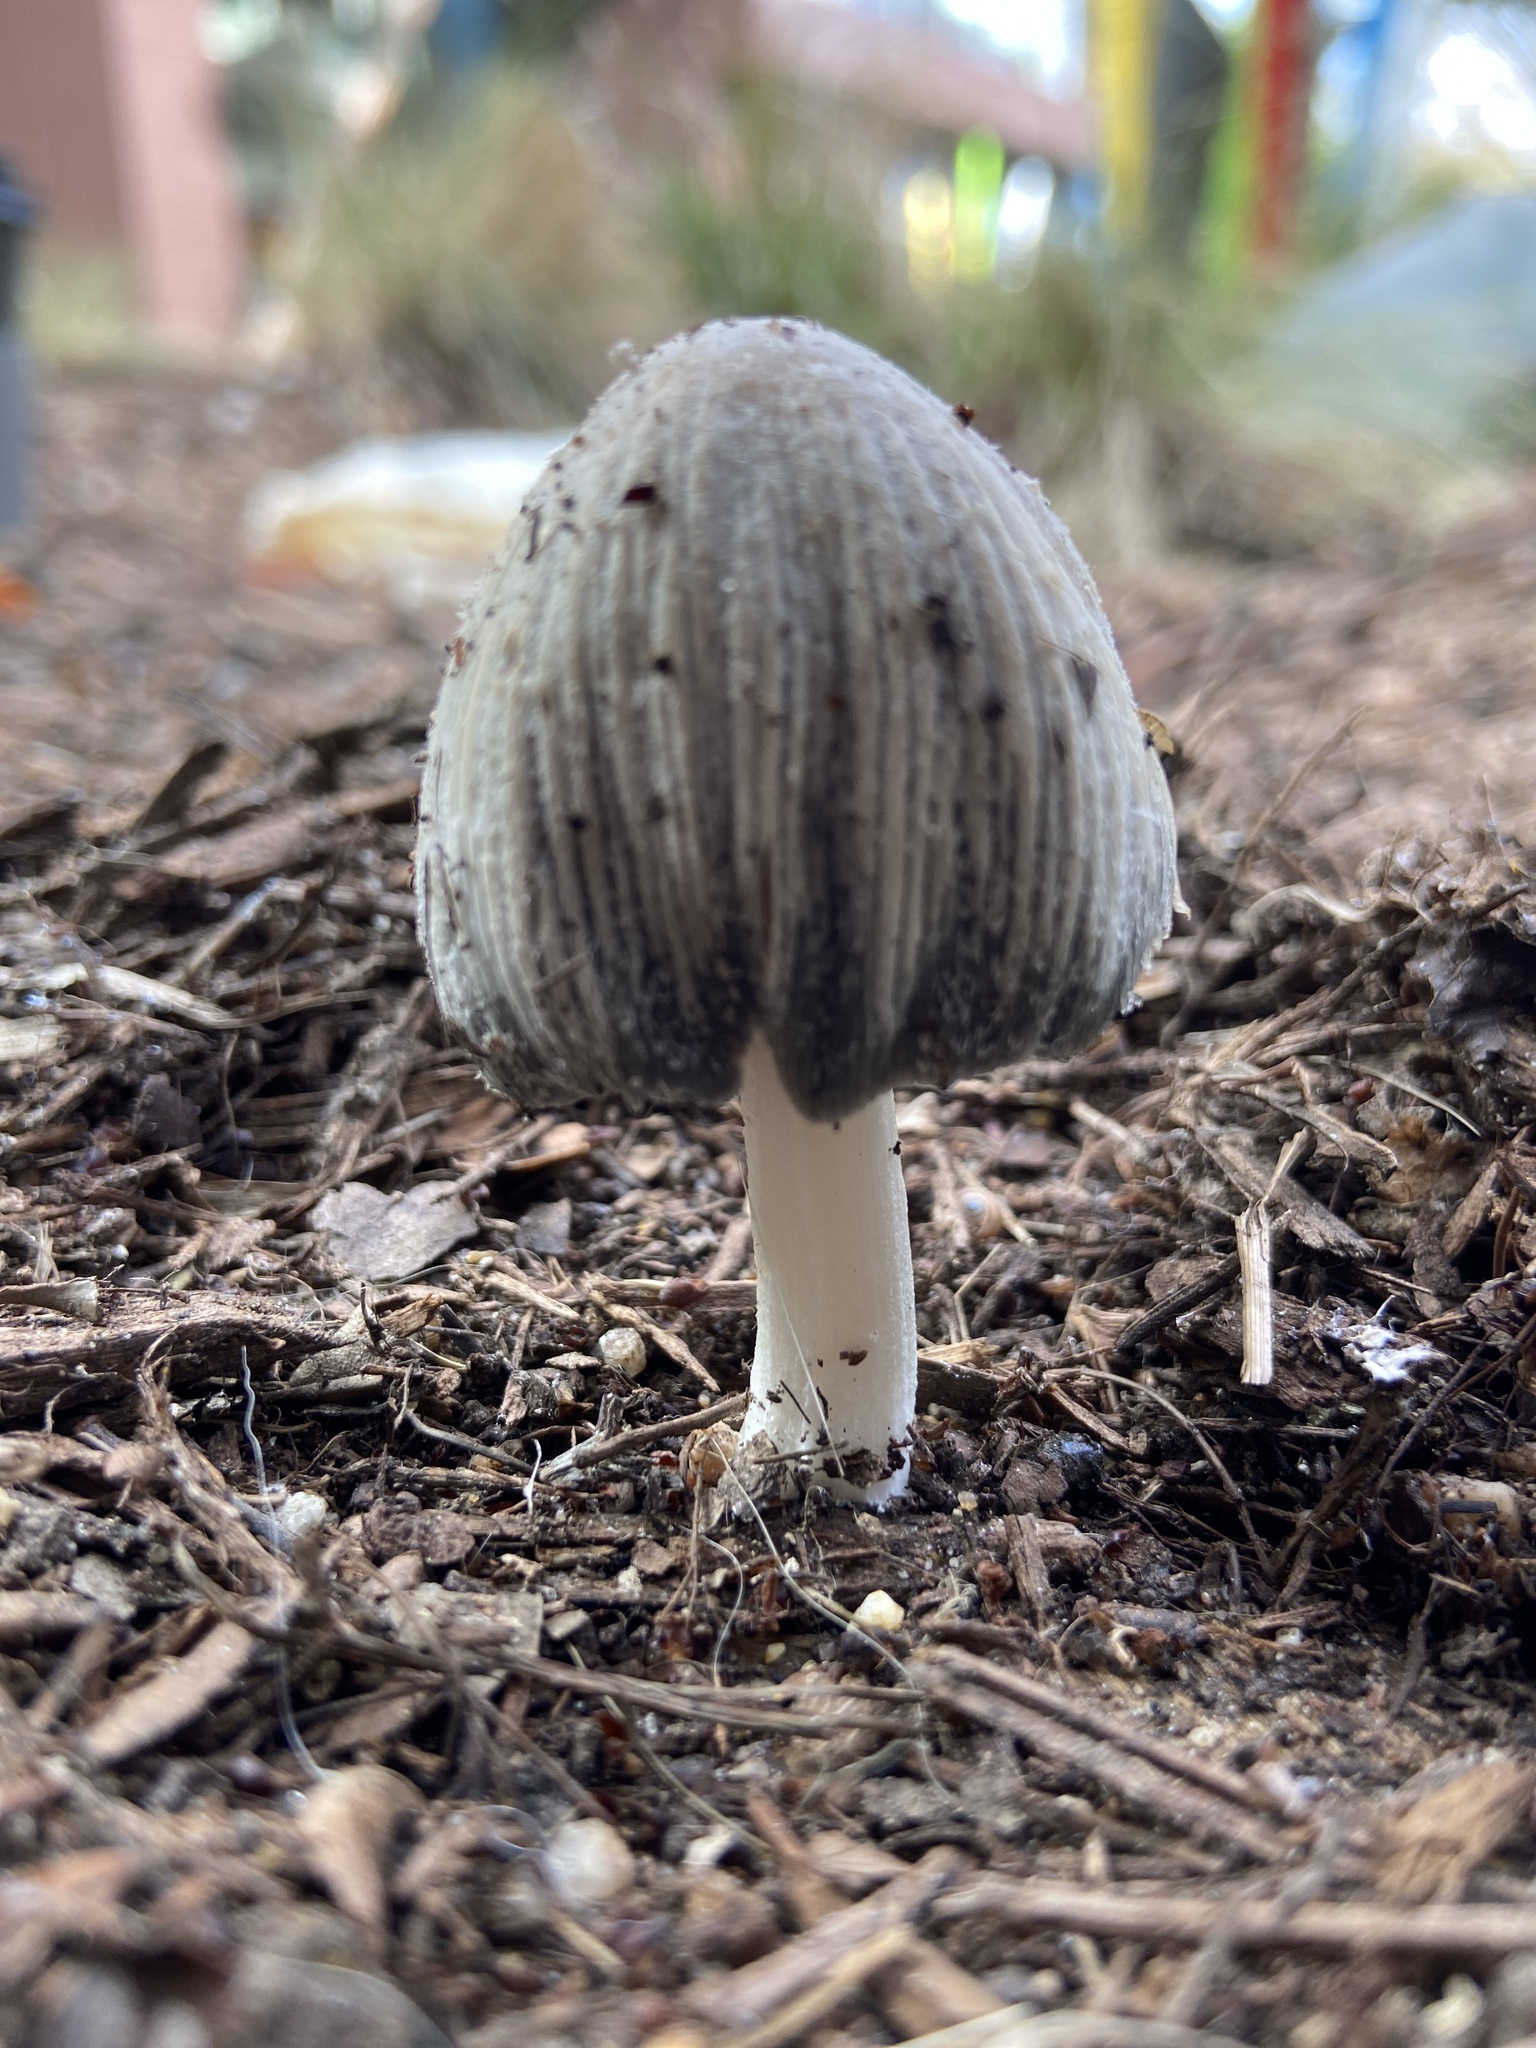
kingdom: Fungi
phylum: Basidiomycota
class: Agaricomycetes
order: Agaricales
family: Psathyrellaceae
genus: Coprinellus
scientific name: Coprinellus flocculosus
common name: Flocculose inkcap
